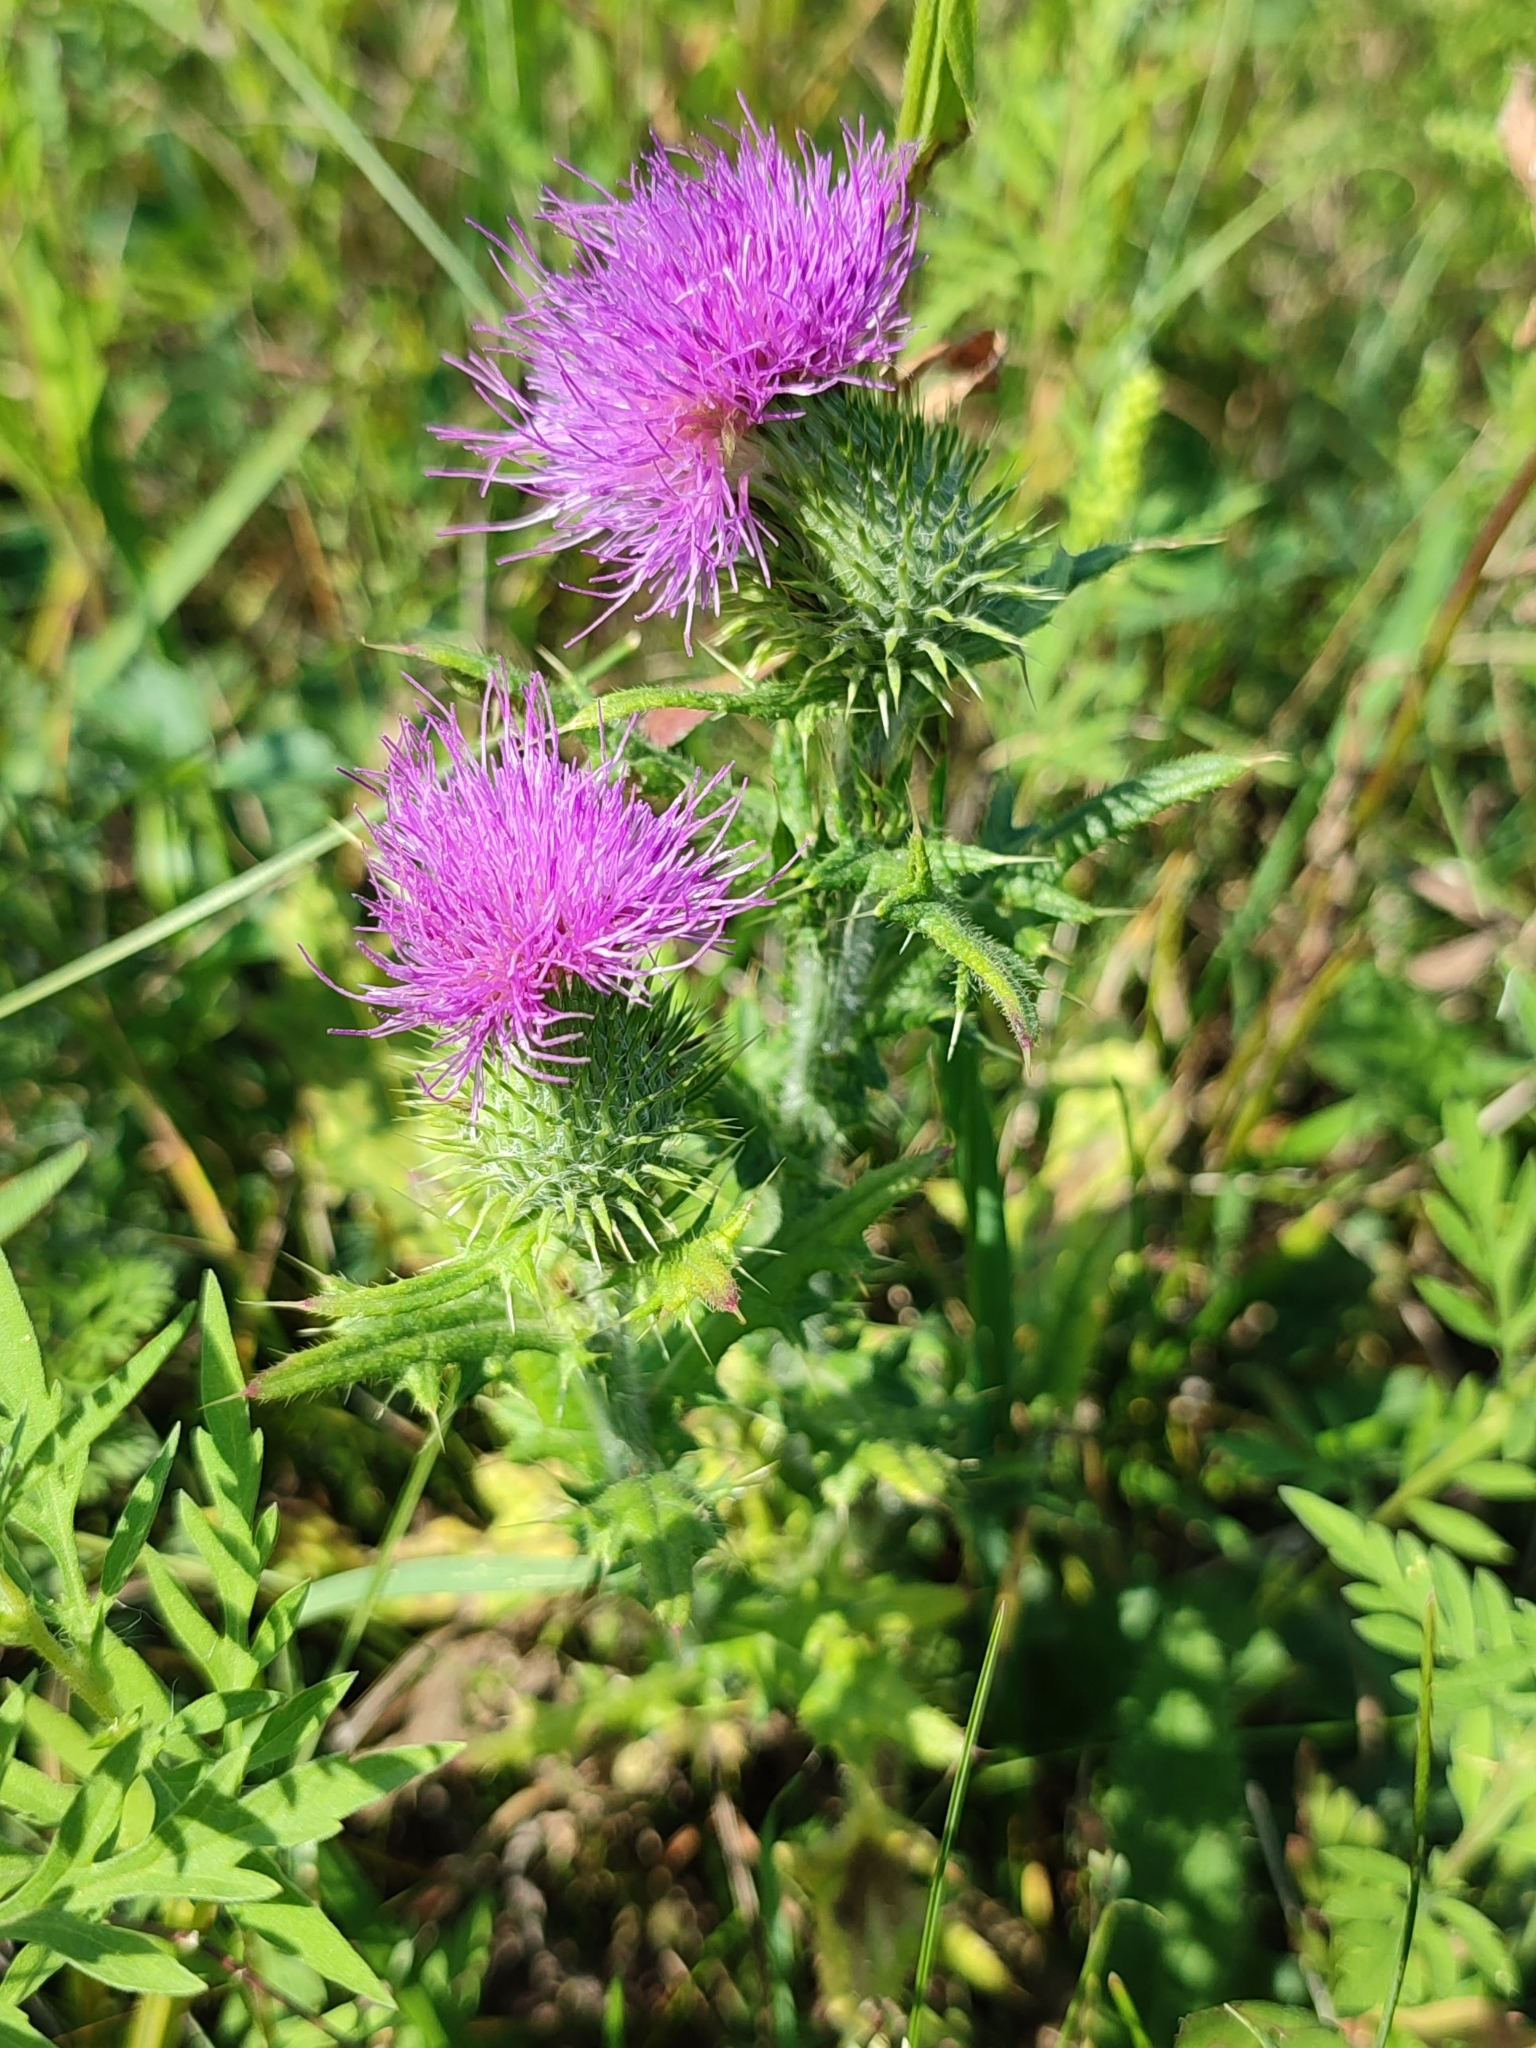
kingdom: Plantae
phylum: Tracheophyta
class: Magnoliopsida
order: Asterales
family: Asteraceae
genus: Cirsium
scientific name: Cirsium vulgare
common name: Bull thistle
